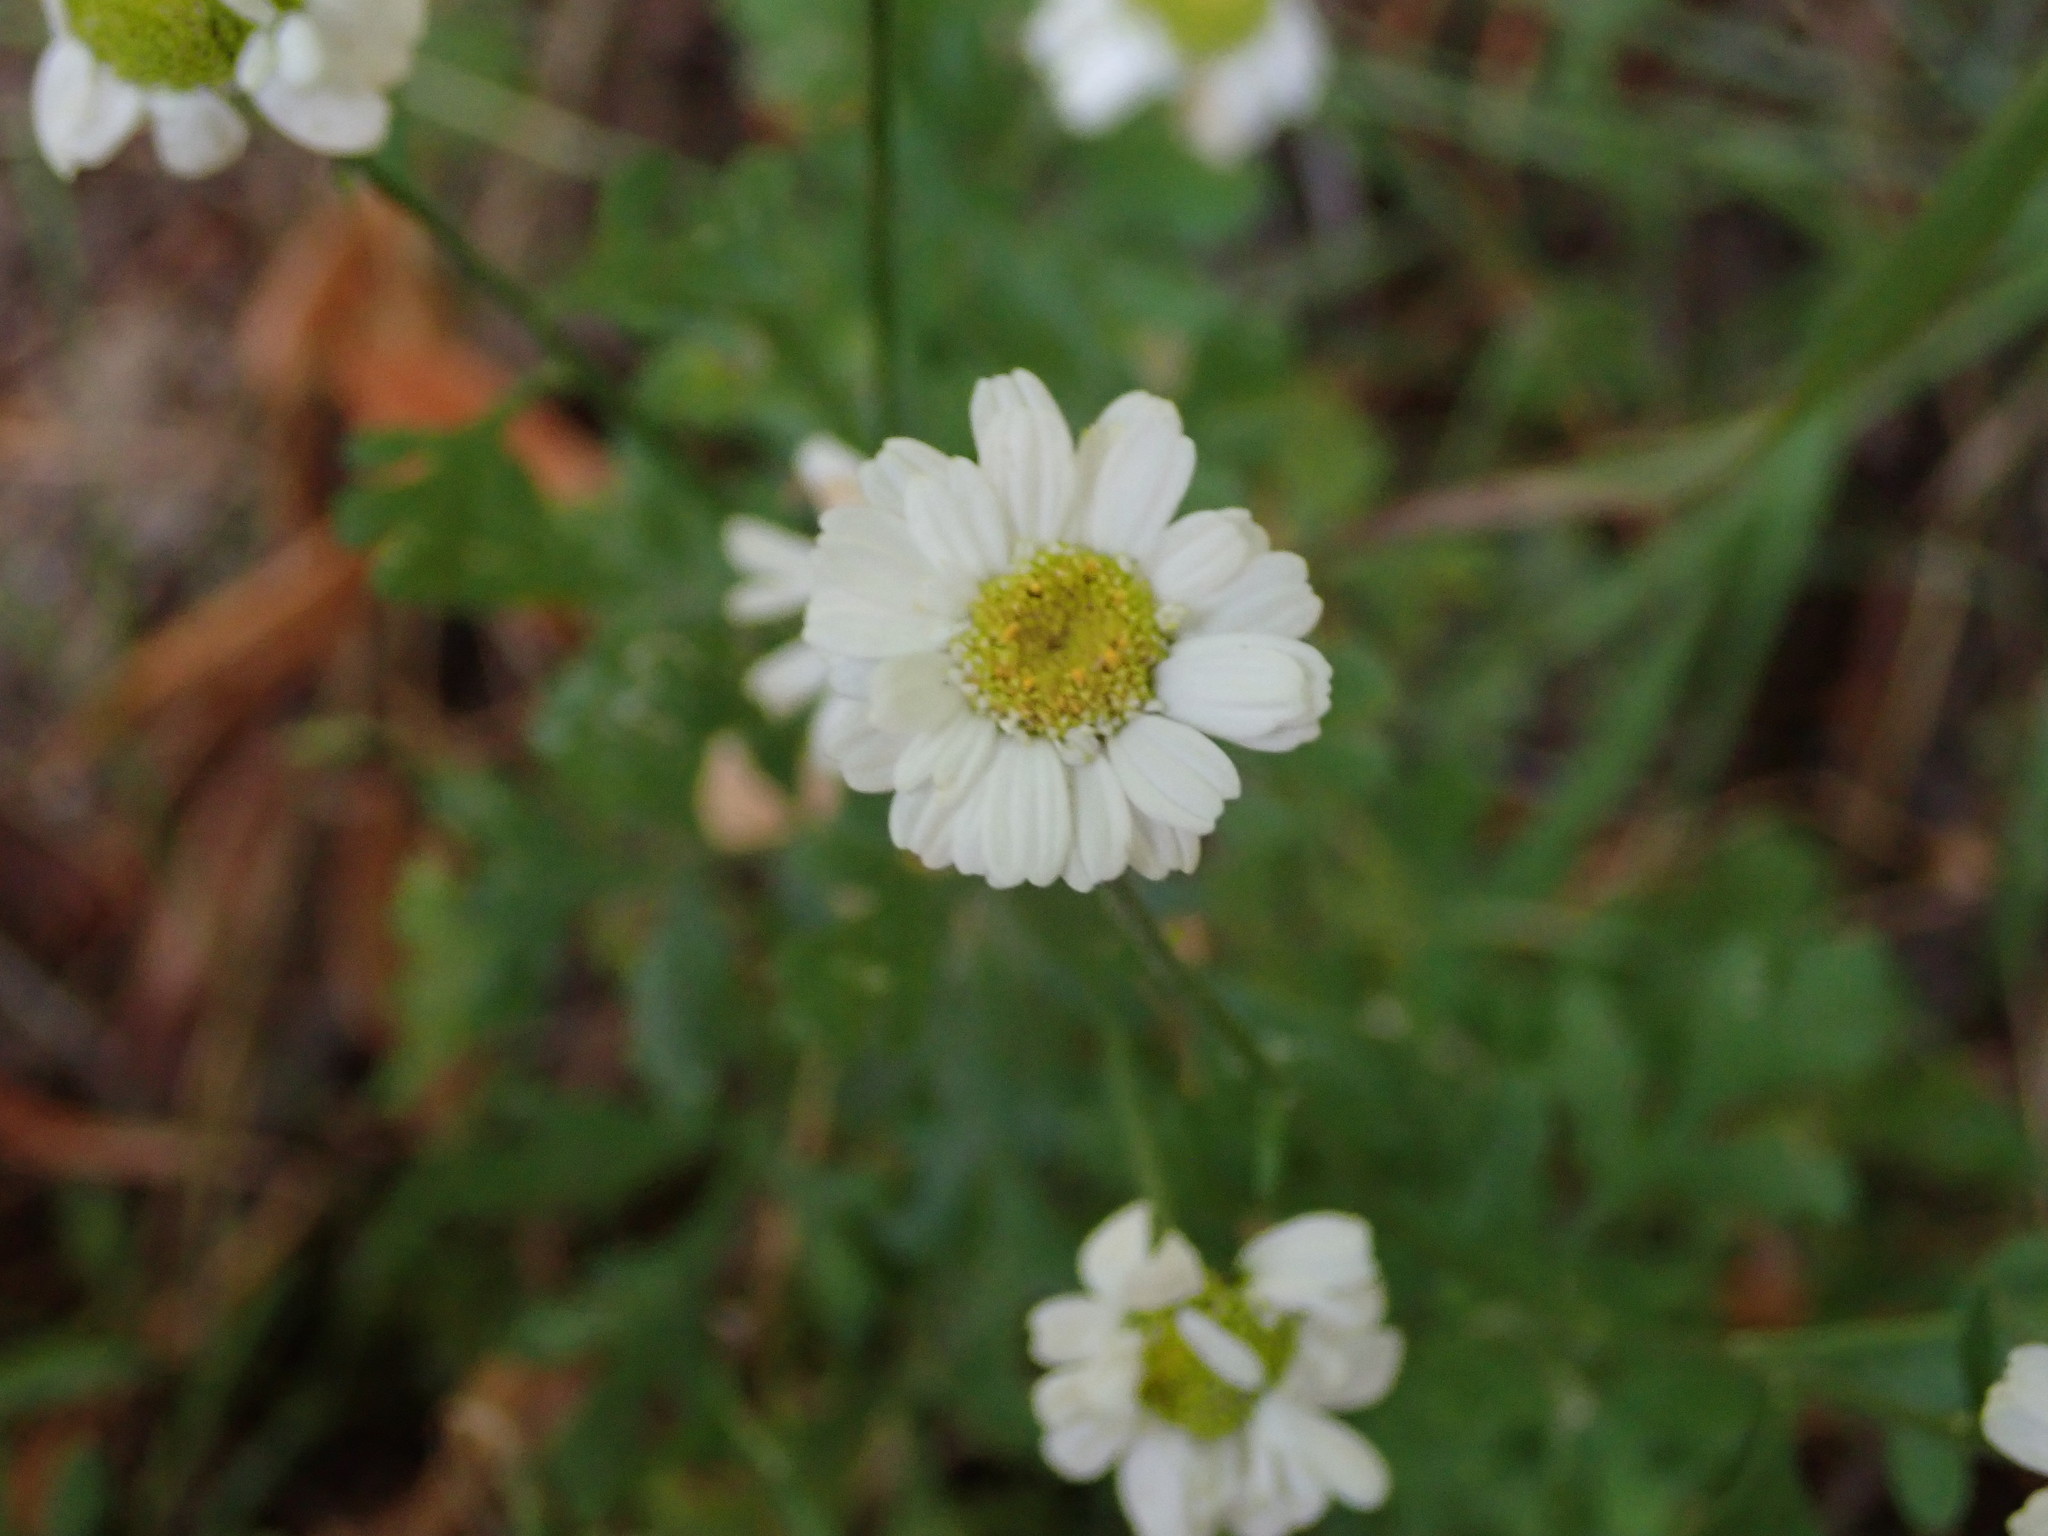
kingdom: Plantae
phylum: Tracheophyta
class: Magnoliopsida
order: Asterales
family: Asteraceae
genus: Tanacetum
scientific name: Tanacetum parthenium
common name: Feverfew
